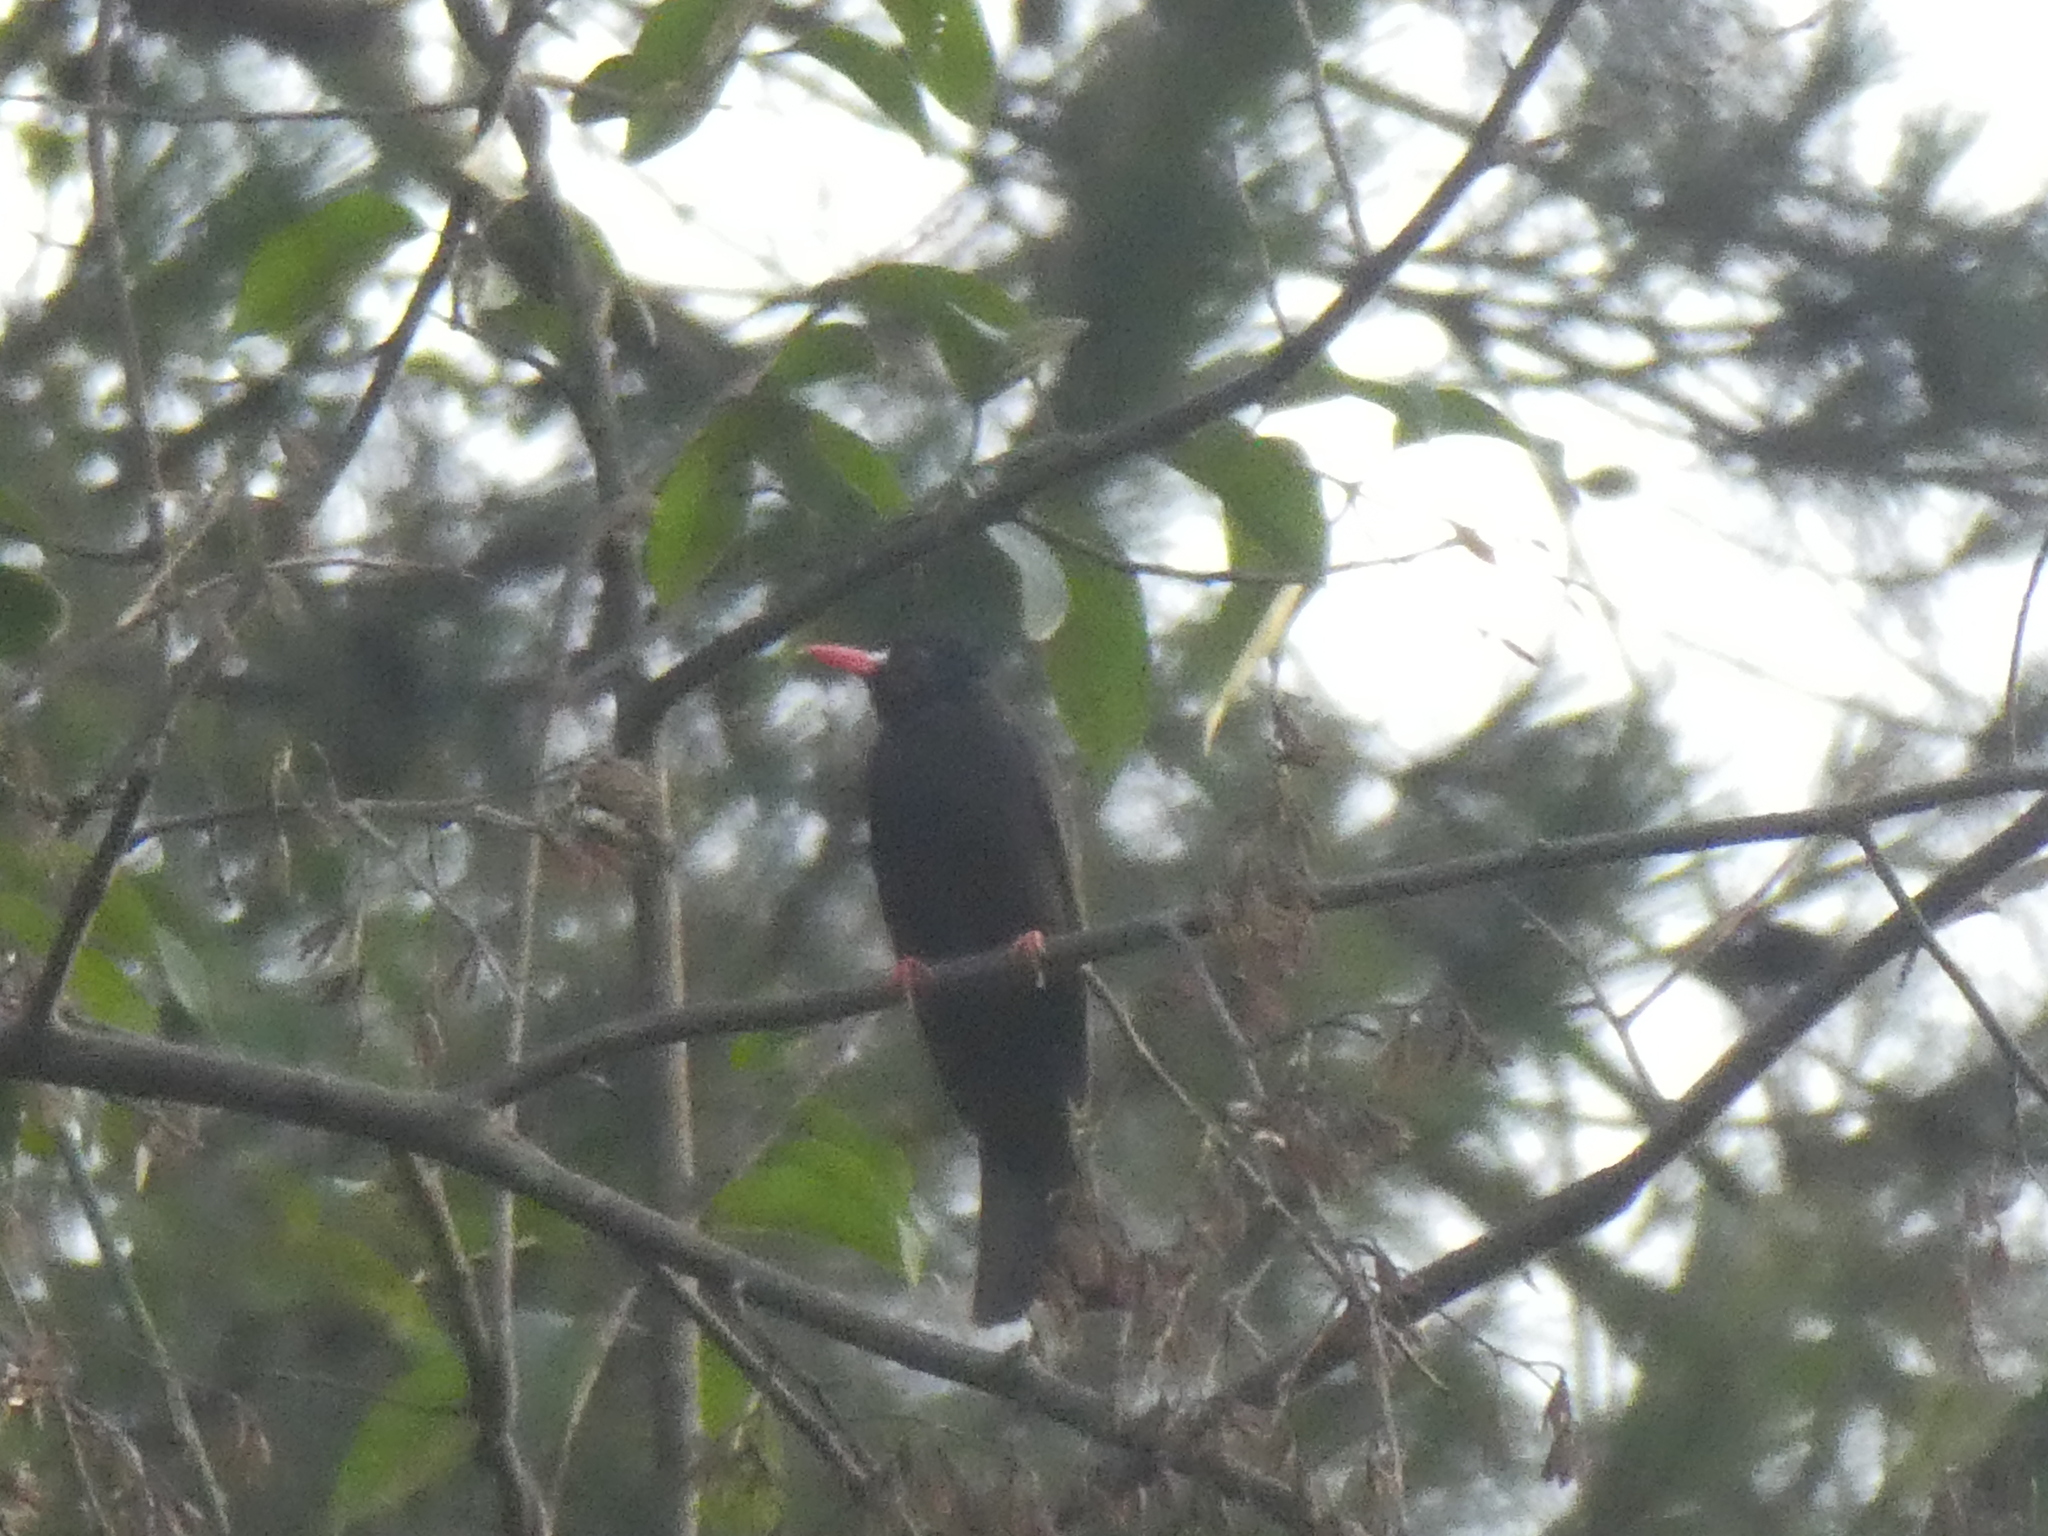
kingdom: Animalia
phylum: Chordata
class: Aves
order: Passeriformes
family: Pycnonotidae
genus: Hypsipetes
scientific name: Hypsipetes leucocephalus
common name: Black bulbul
